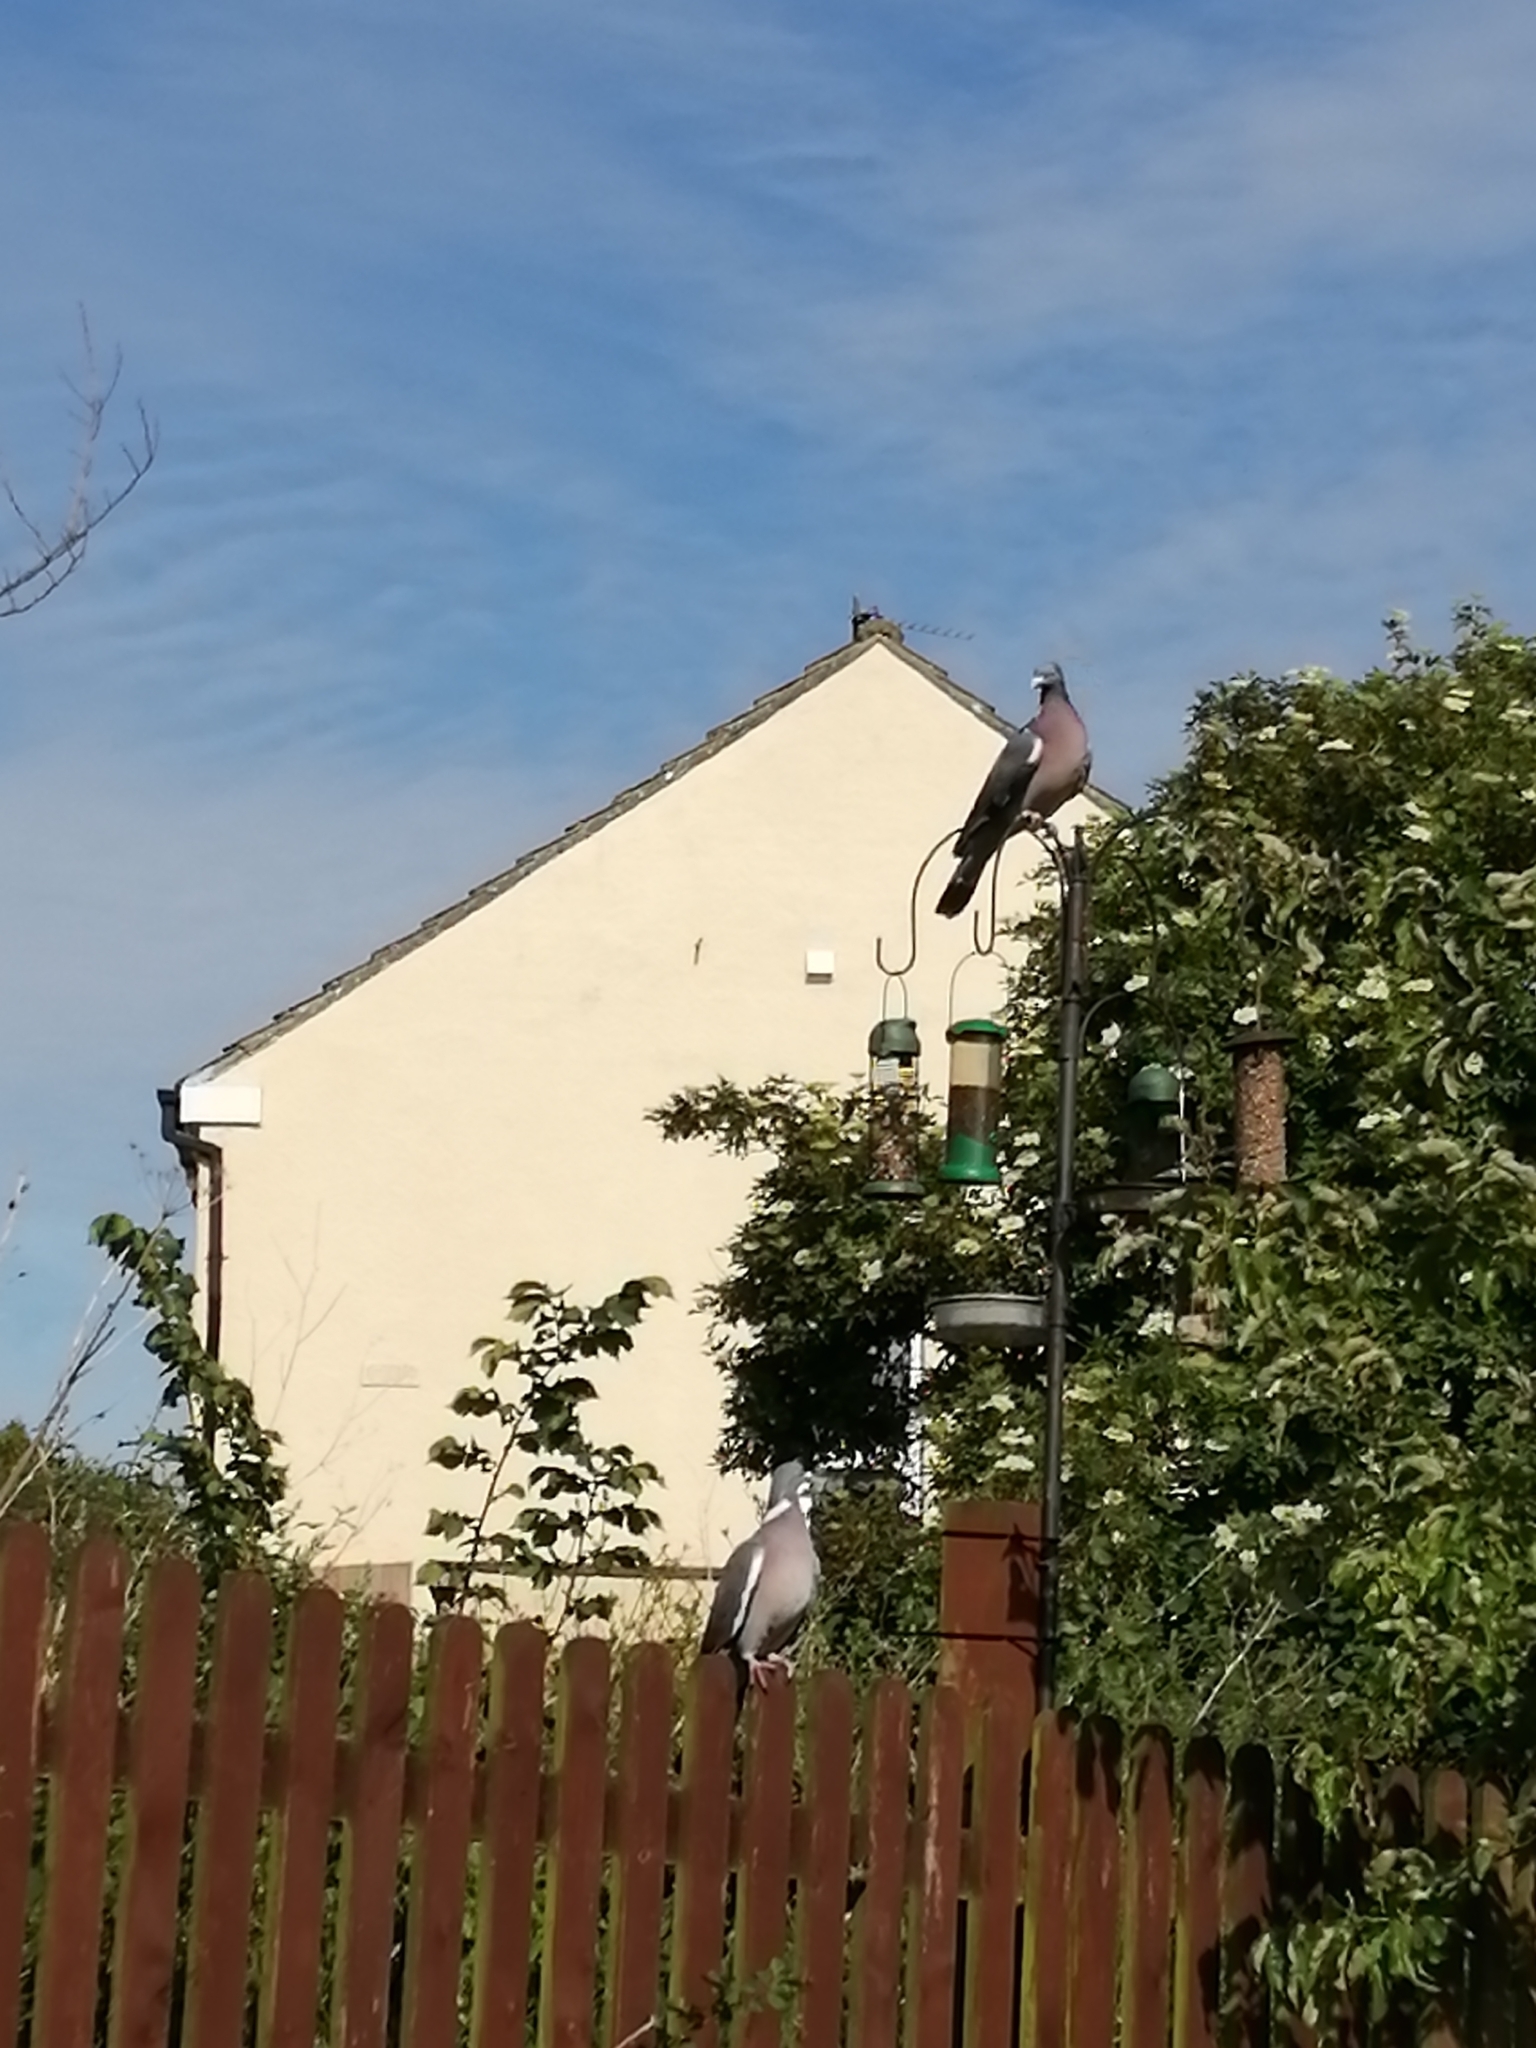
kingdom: Animalia
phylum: Chordata
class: Aves
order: Columbiformes
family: Columbidae
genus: Columba
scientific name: Columba palumbus
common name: Common wood pigeon
